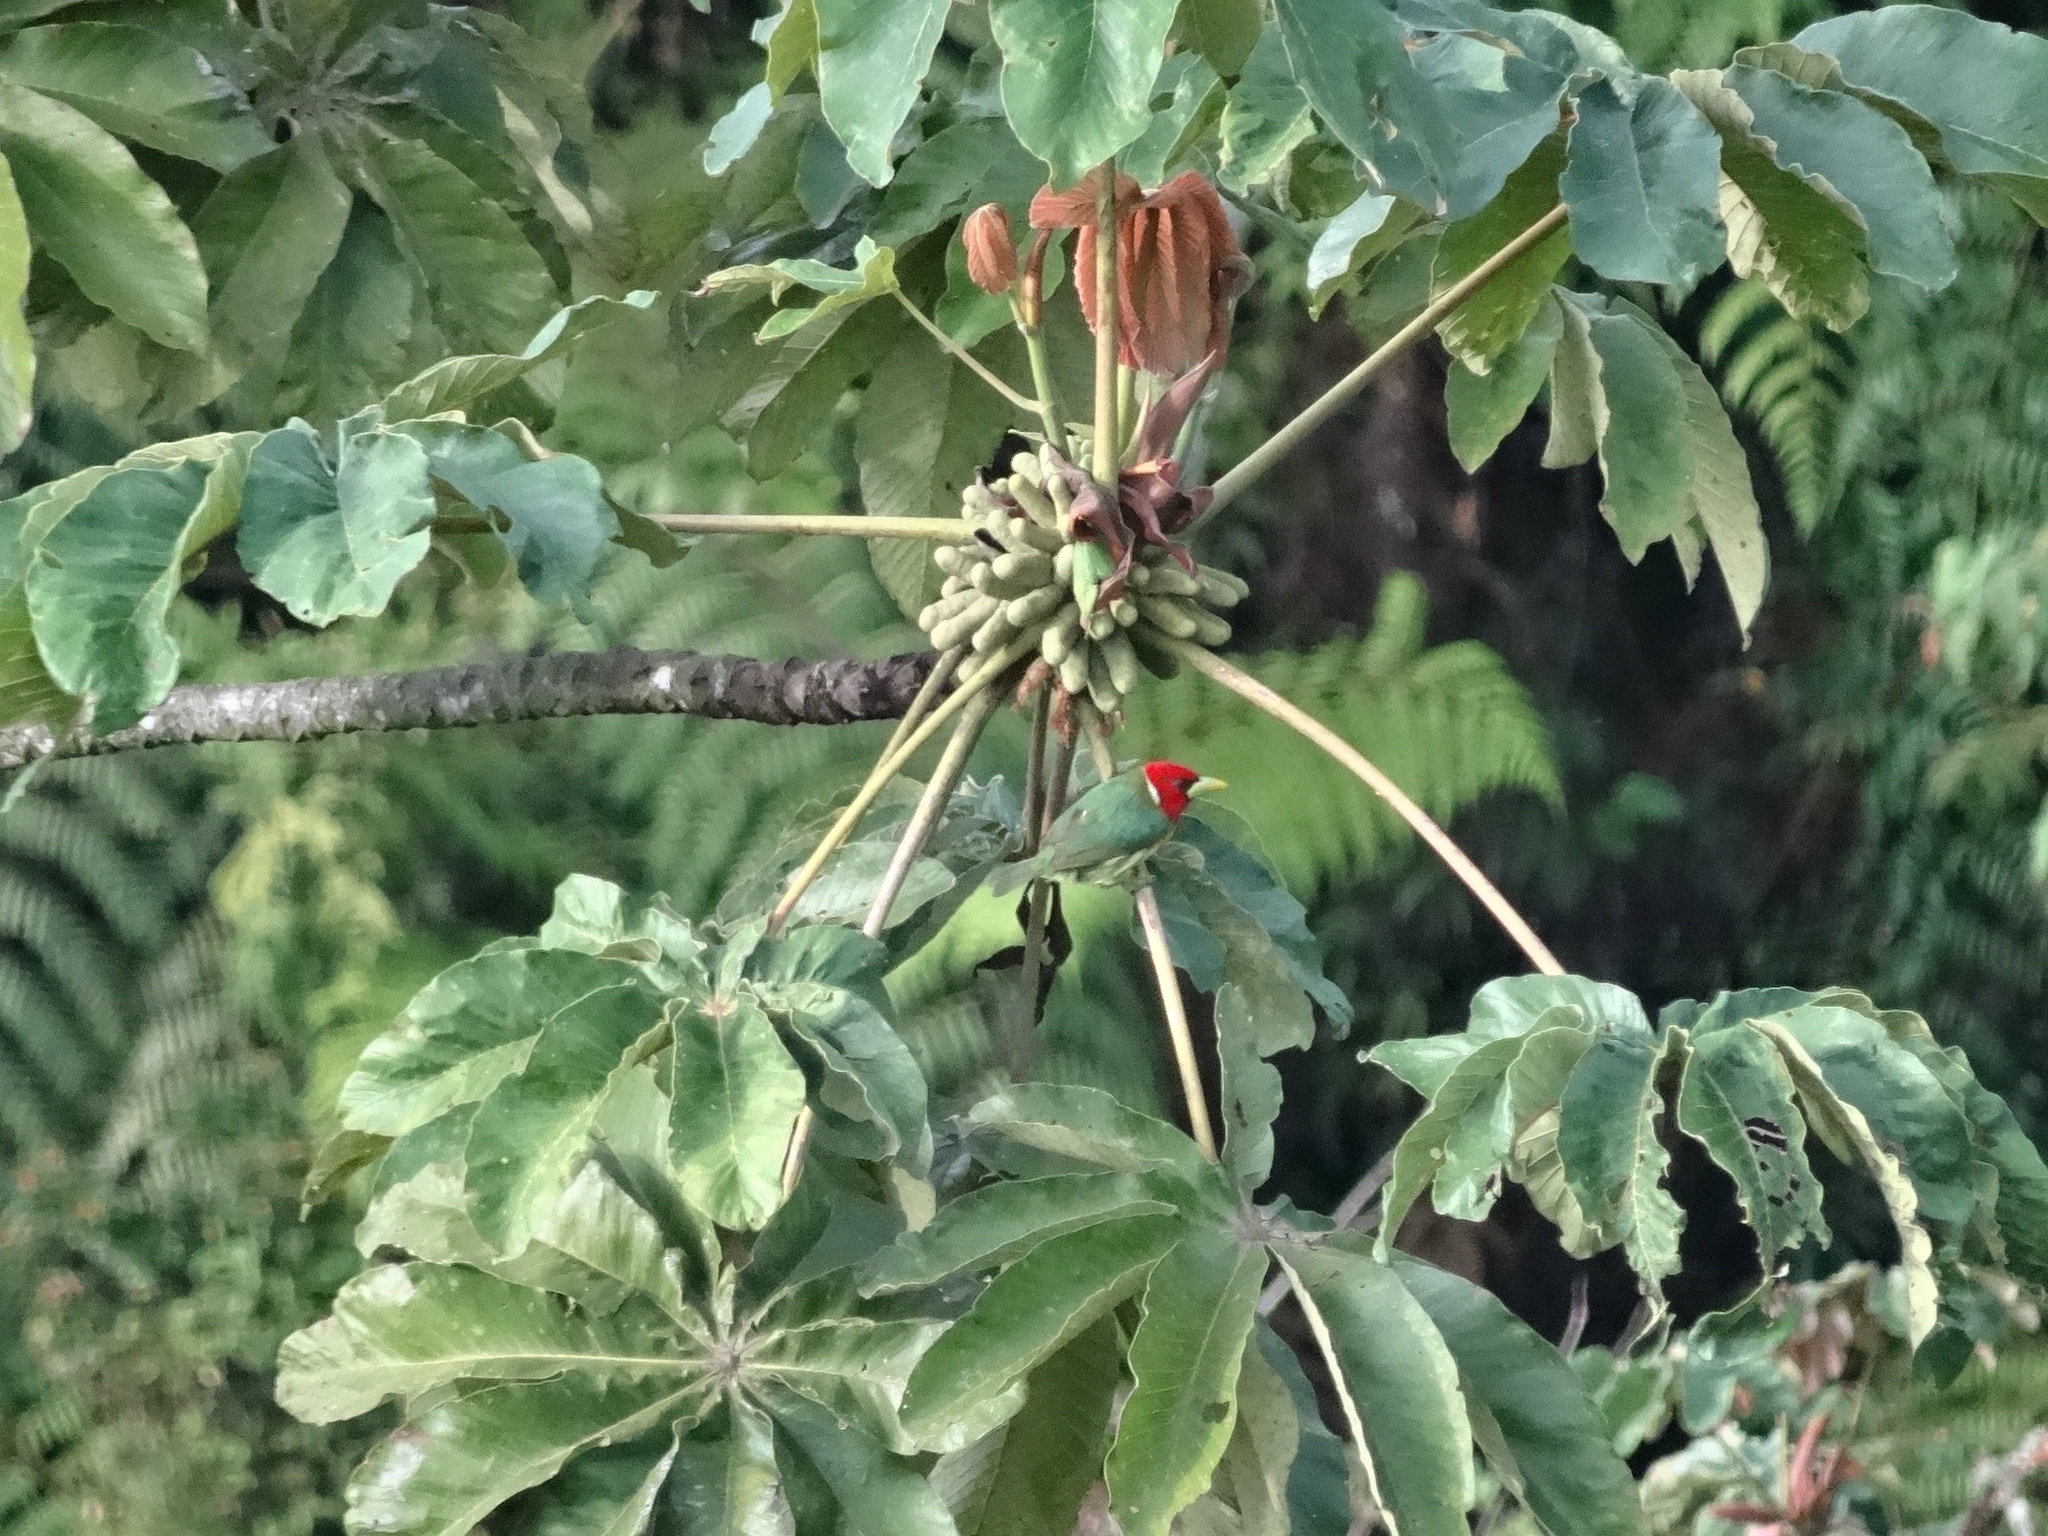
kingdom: Animalia
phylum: Chordata
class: Aves
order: Piciformes
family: Capitonidae
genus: Eubucco
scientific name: Eubucco bourcierii
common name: Red-headed barbet
